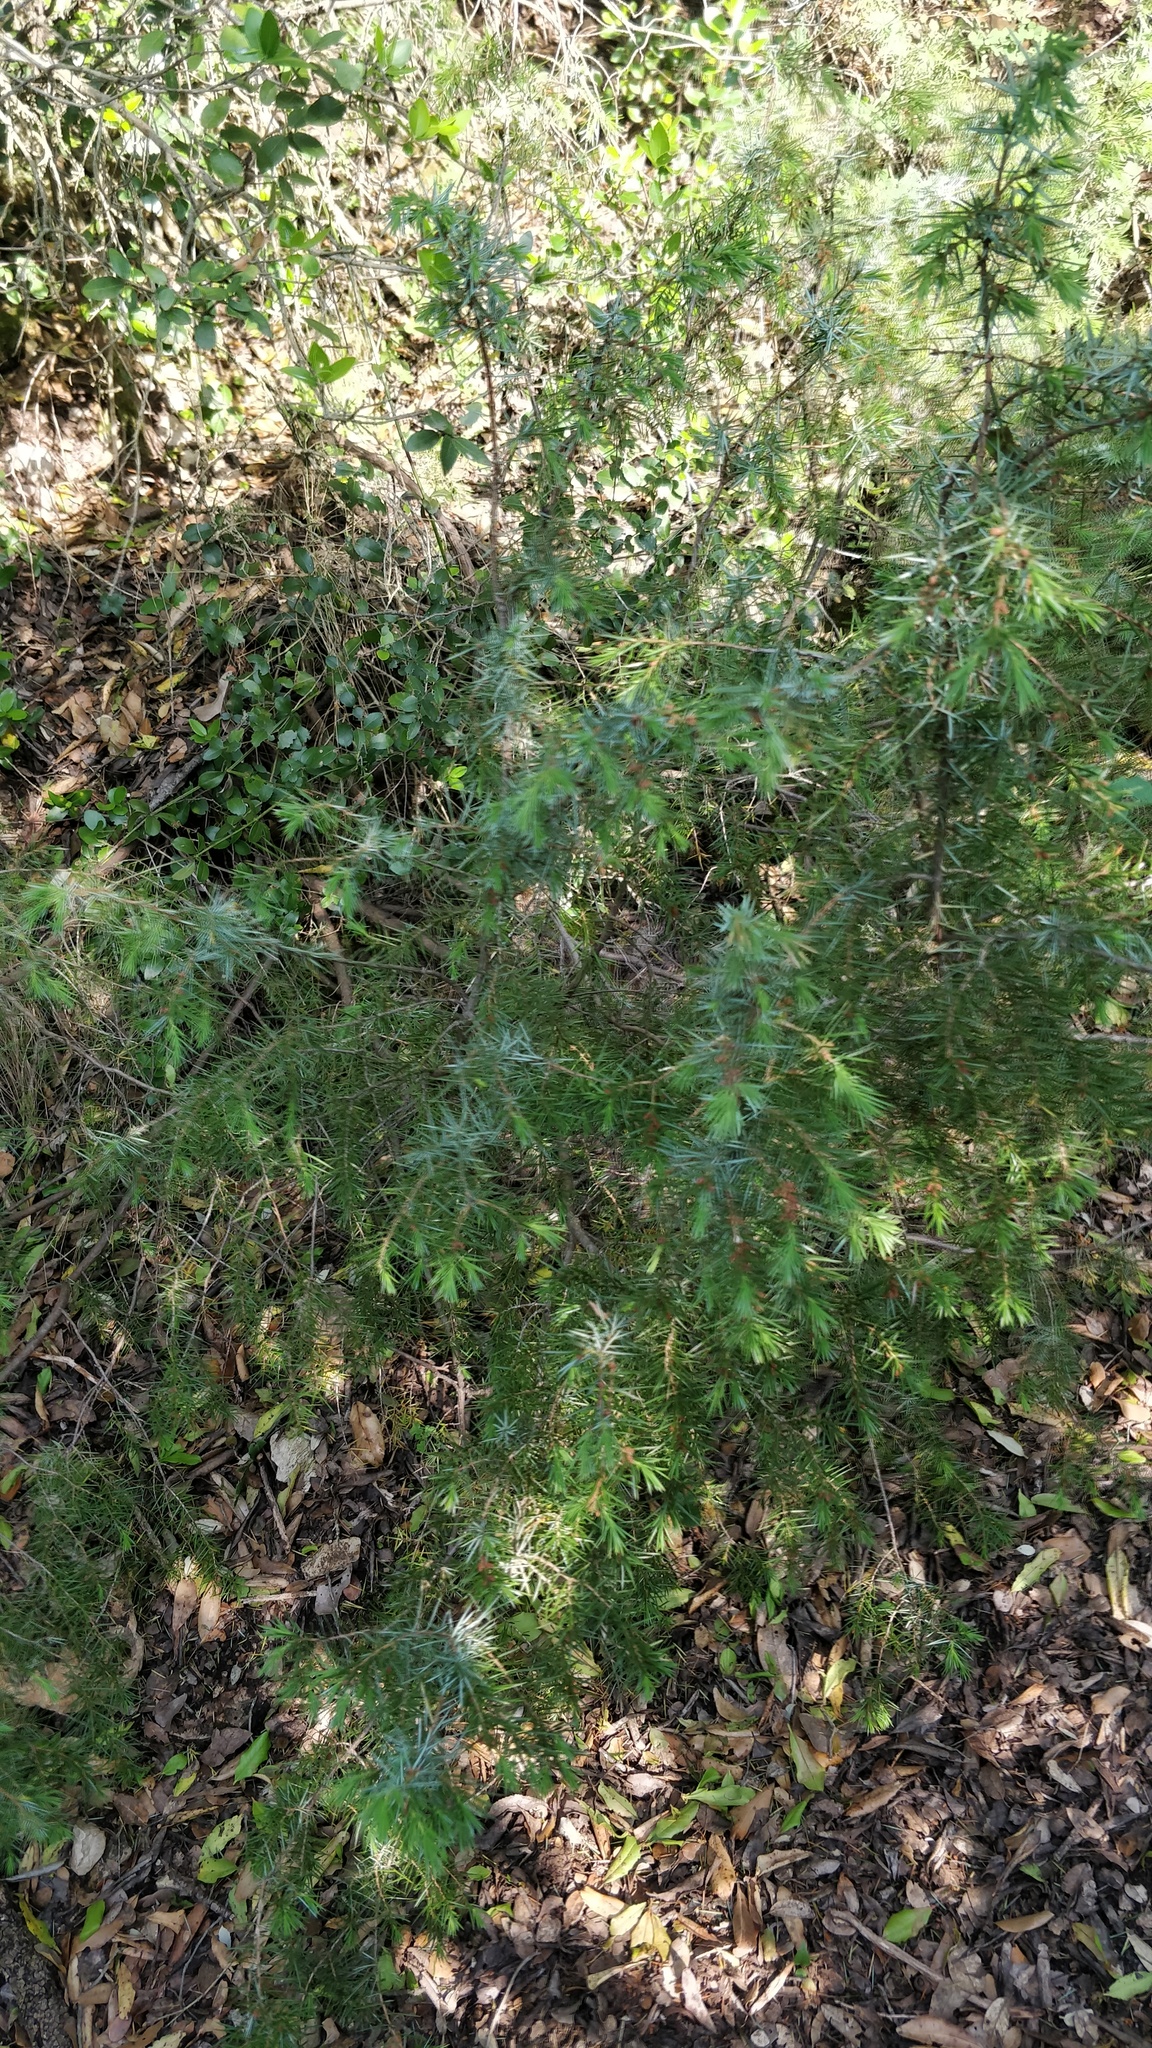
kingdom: Plantae
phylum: Tracheophyta
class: Pinopsida
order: Pinales
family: Cupressaceae
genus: Juniperus
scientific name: Juniperus communis
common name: Common juniper
